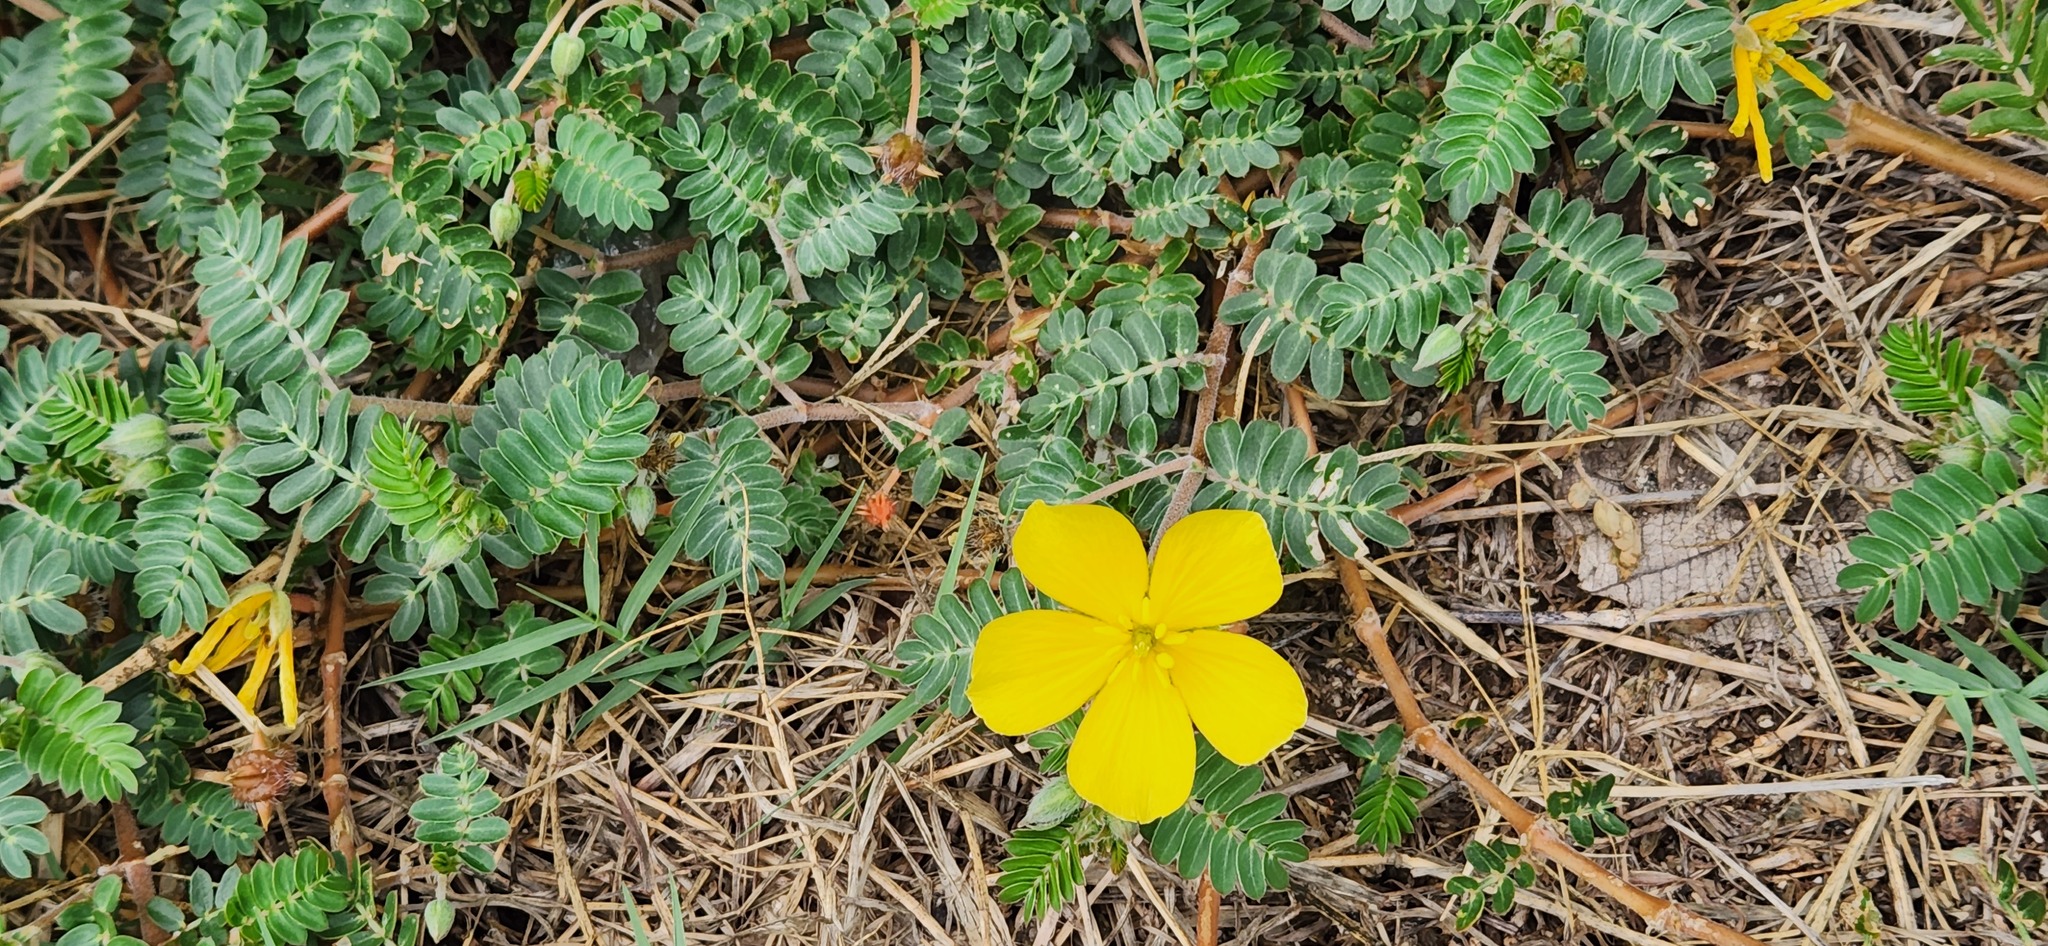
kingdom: Plantae
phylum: Tracheophyta
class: Magnoliopsida
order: Zygophyllales
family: Zygophyllaceae
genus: Tribulus
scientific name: Tribulus cistoides
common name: Jamaican feverplant
